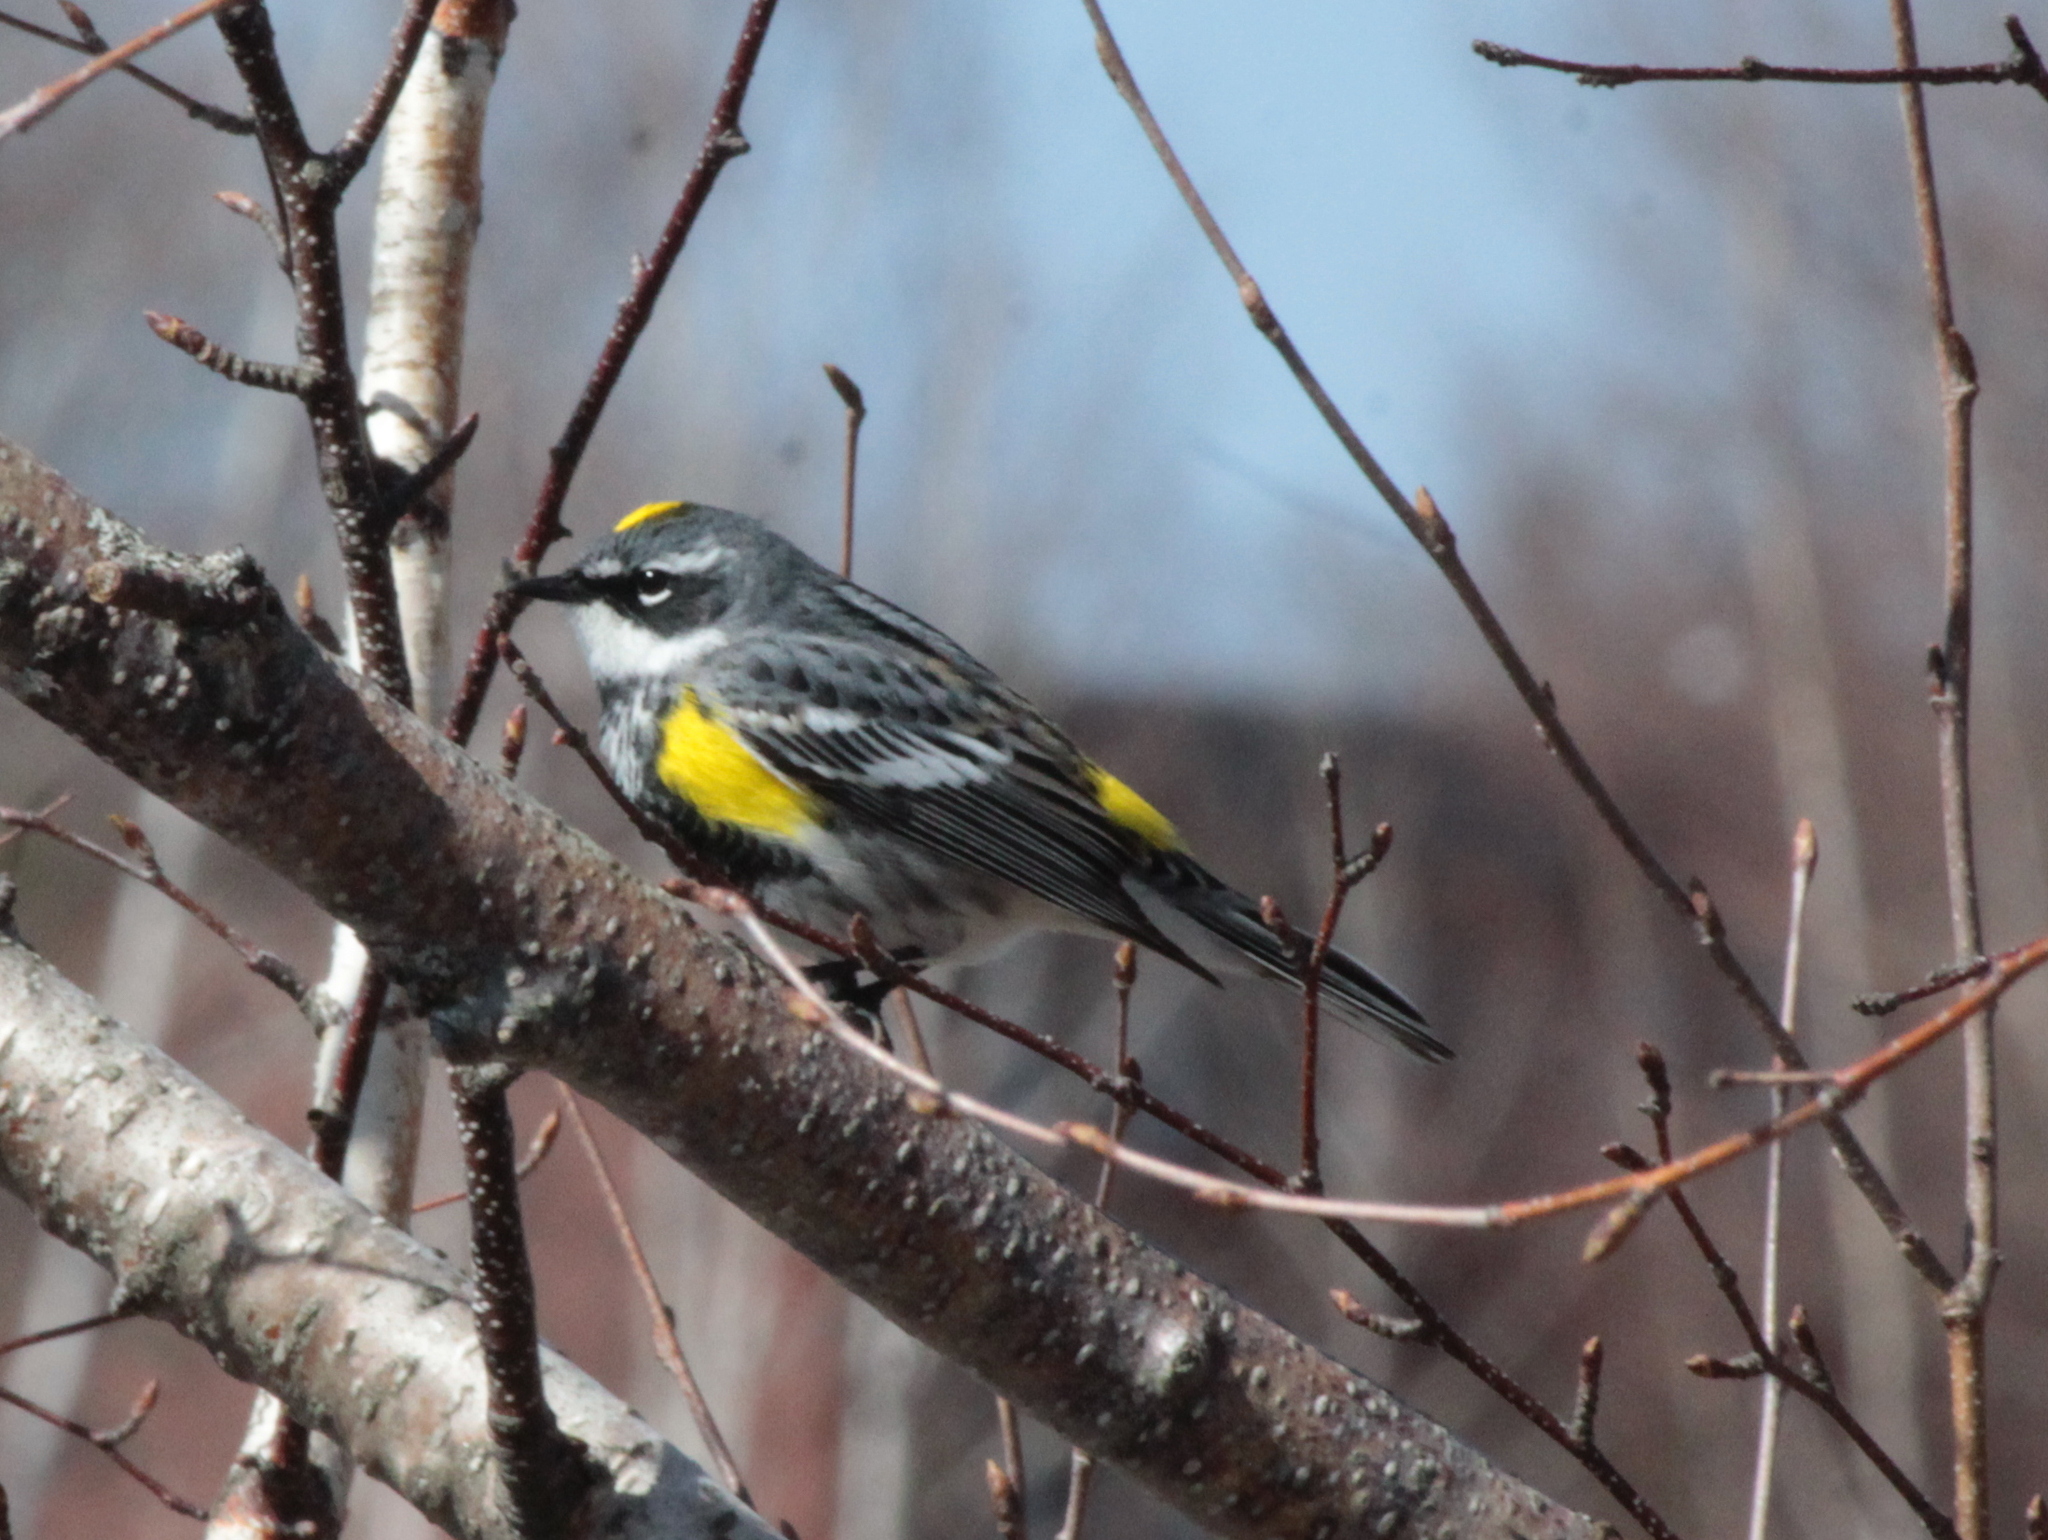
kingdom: Animalia
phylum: Chordata
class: Aves
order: Passeriformes
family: Parulidae
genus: Setophaga
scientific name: Setophaga coronata
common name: Myrtle warbler
